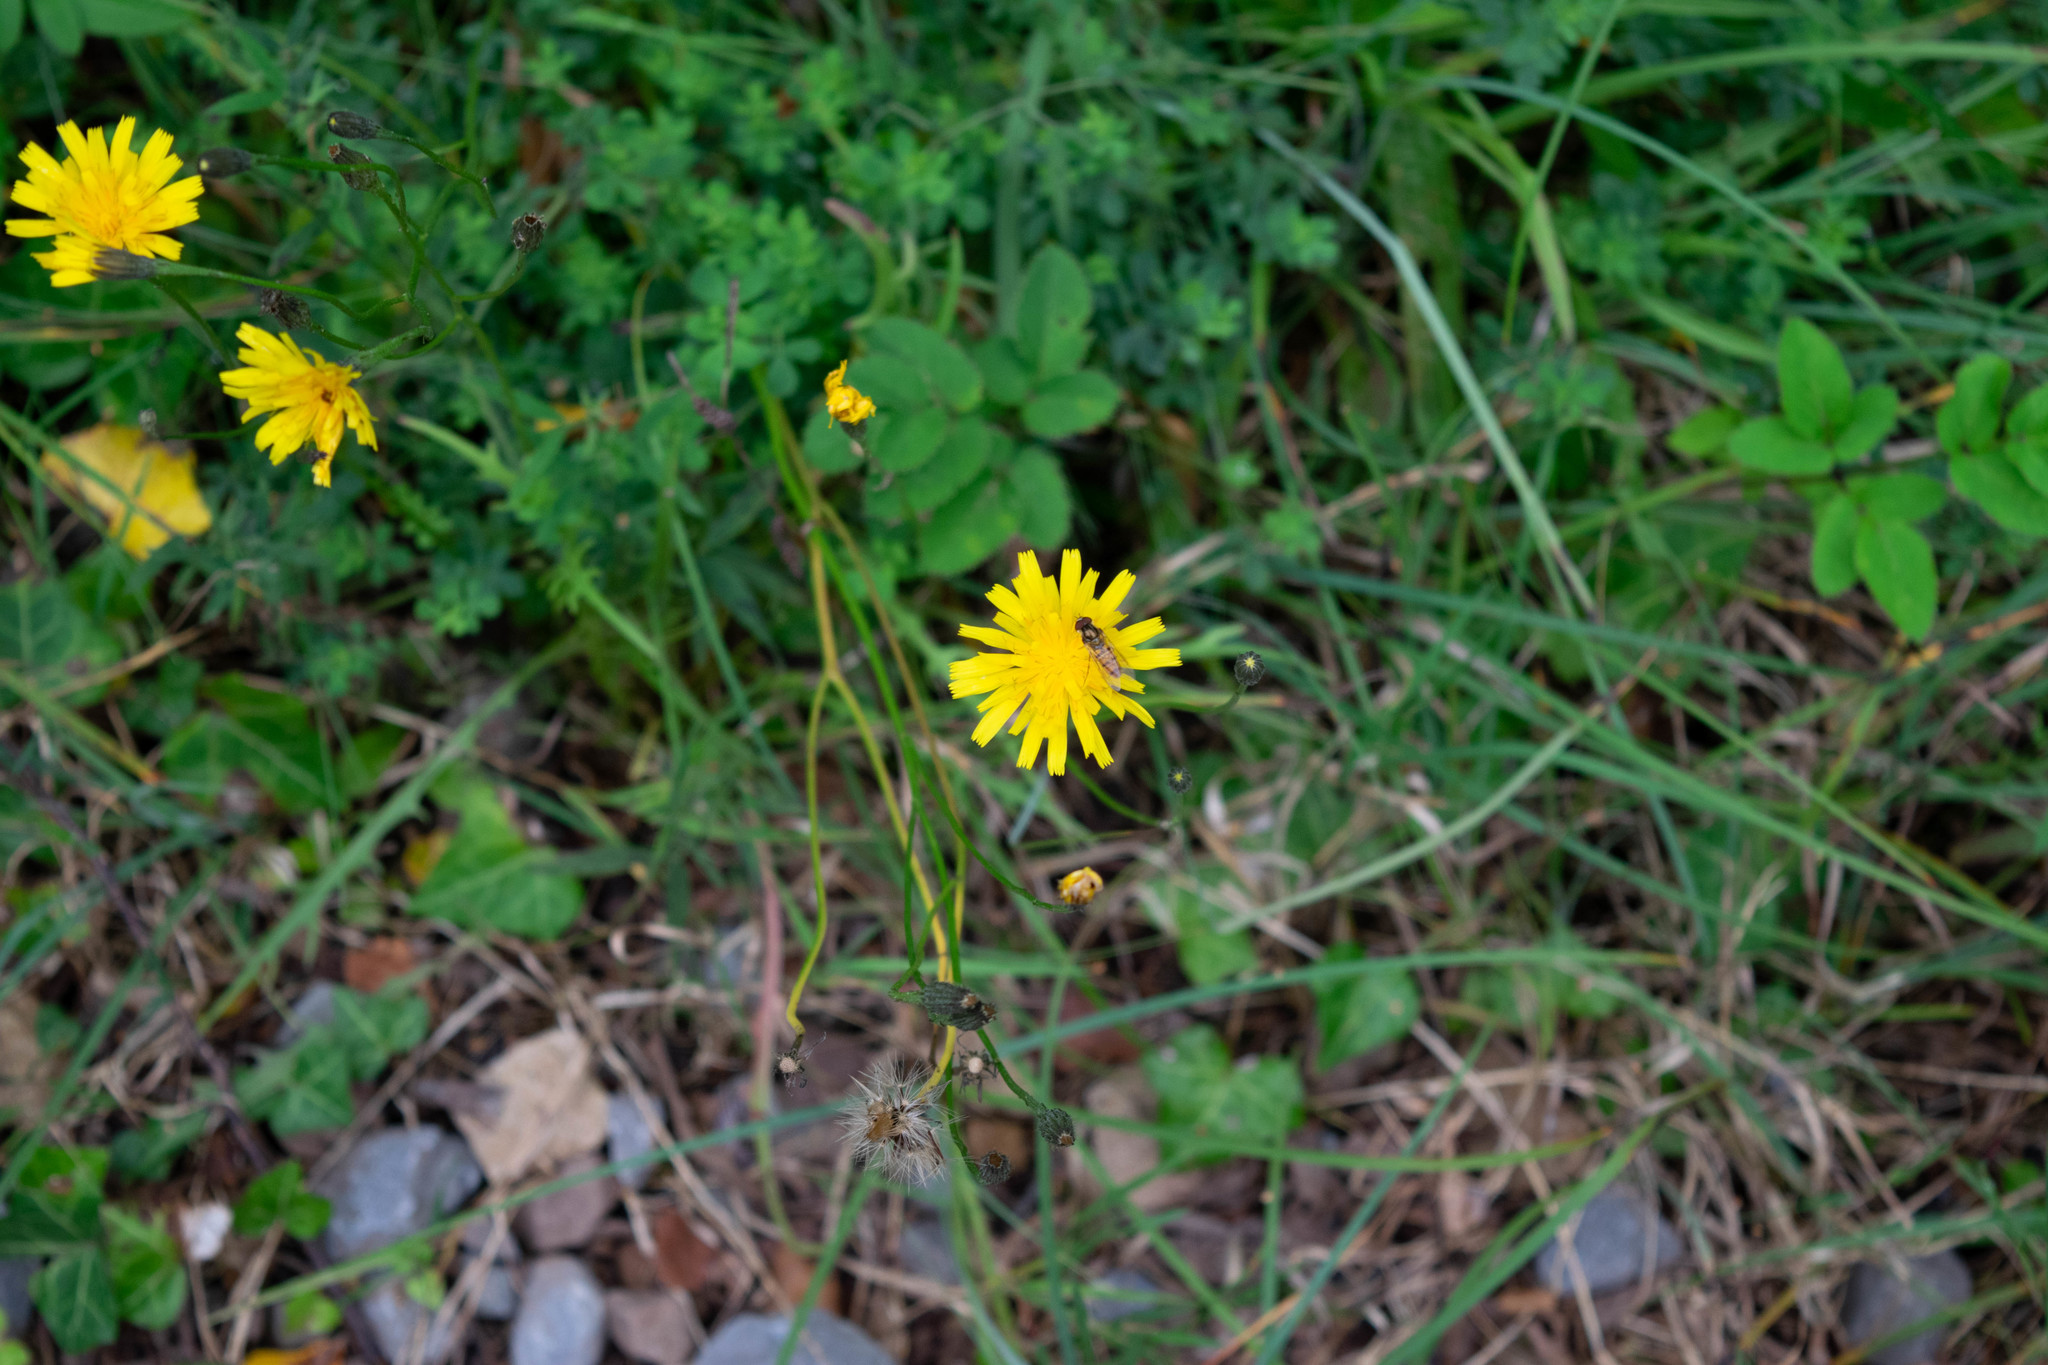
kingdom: Animalia
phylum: Arthropoda
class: Insecta
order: Diptera
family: Syrphidae
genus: Episyrphus
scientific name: Episyrphus balteatus
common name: Marmalade hoverfly
